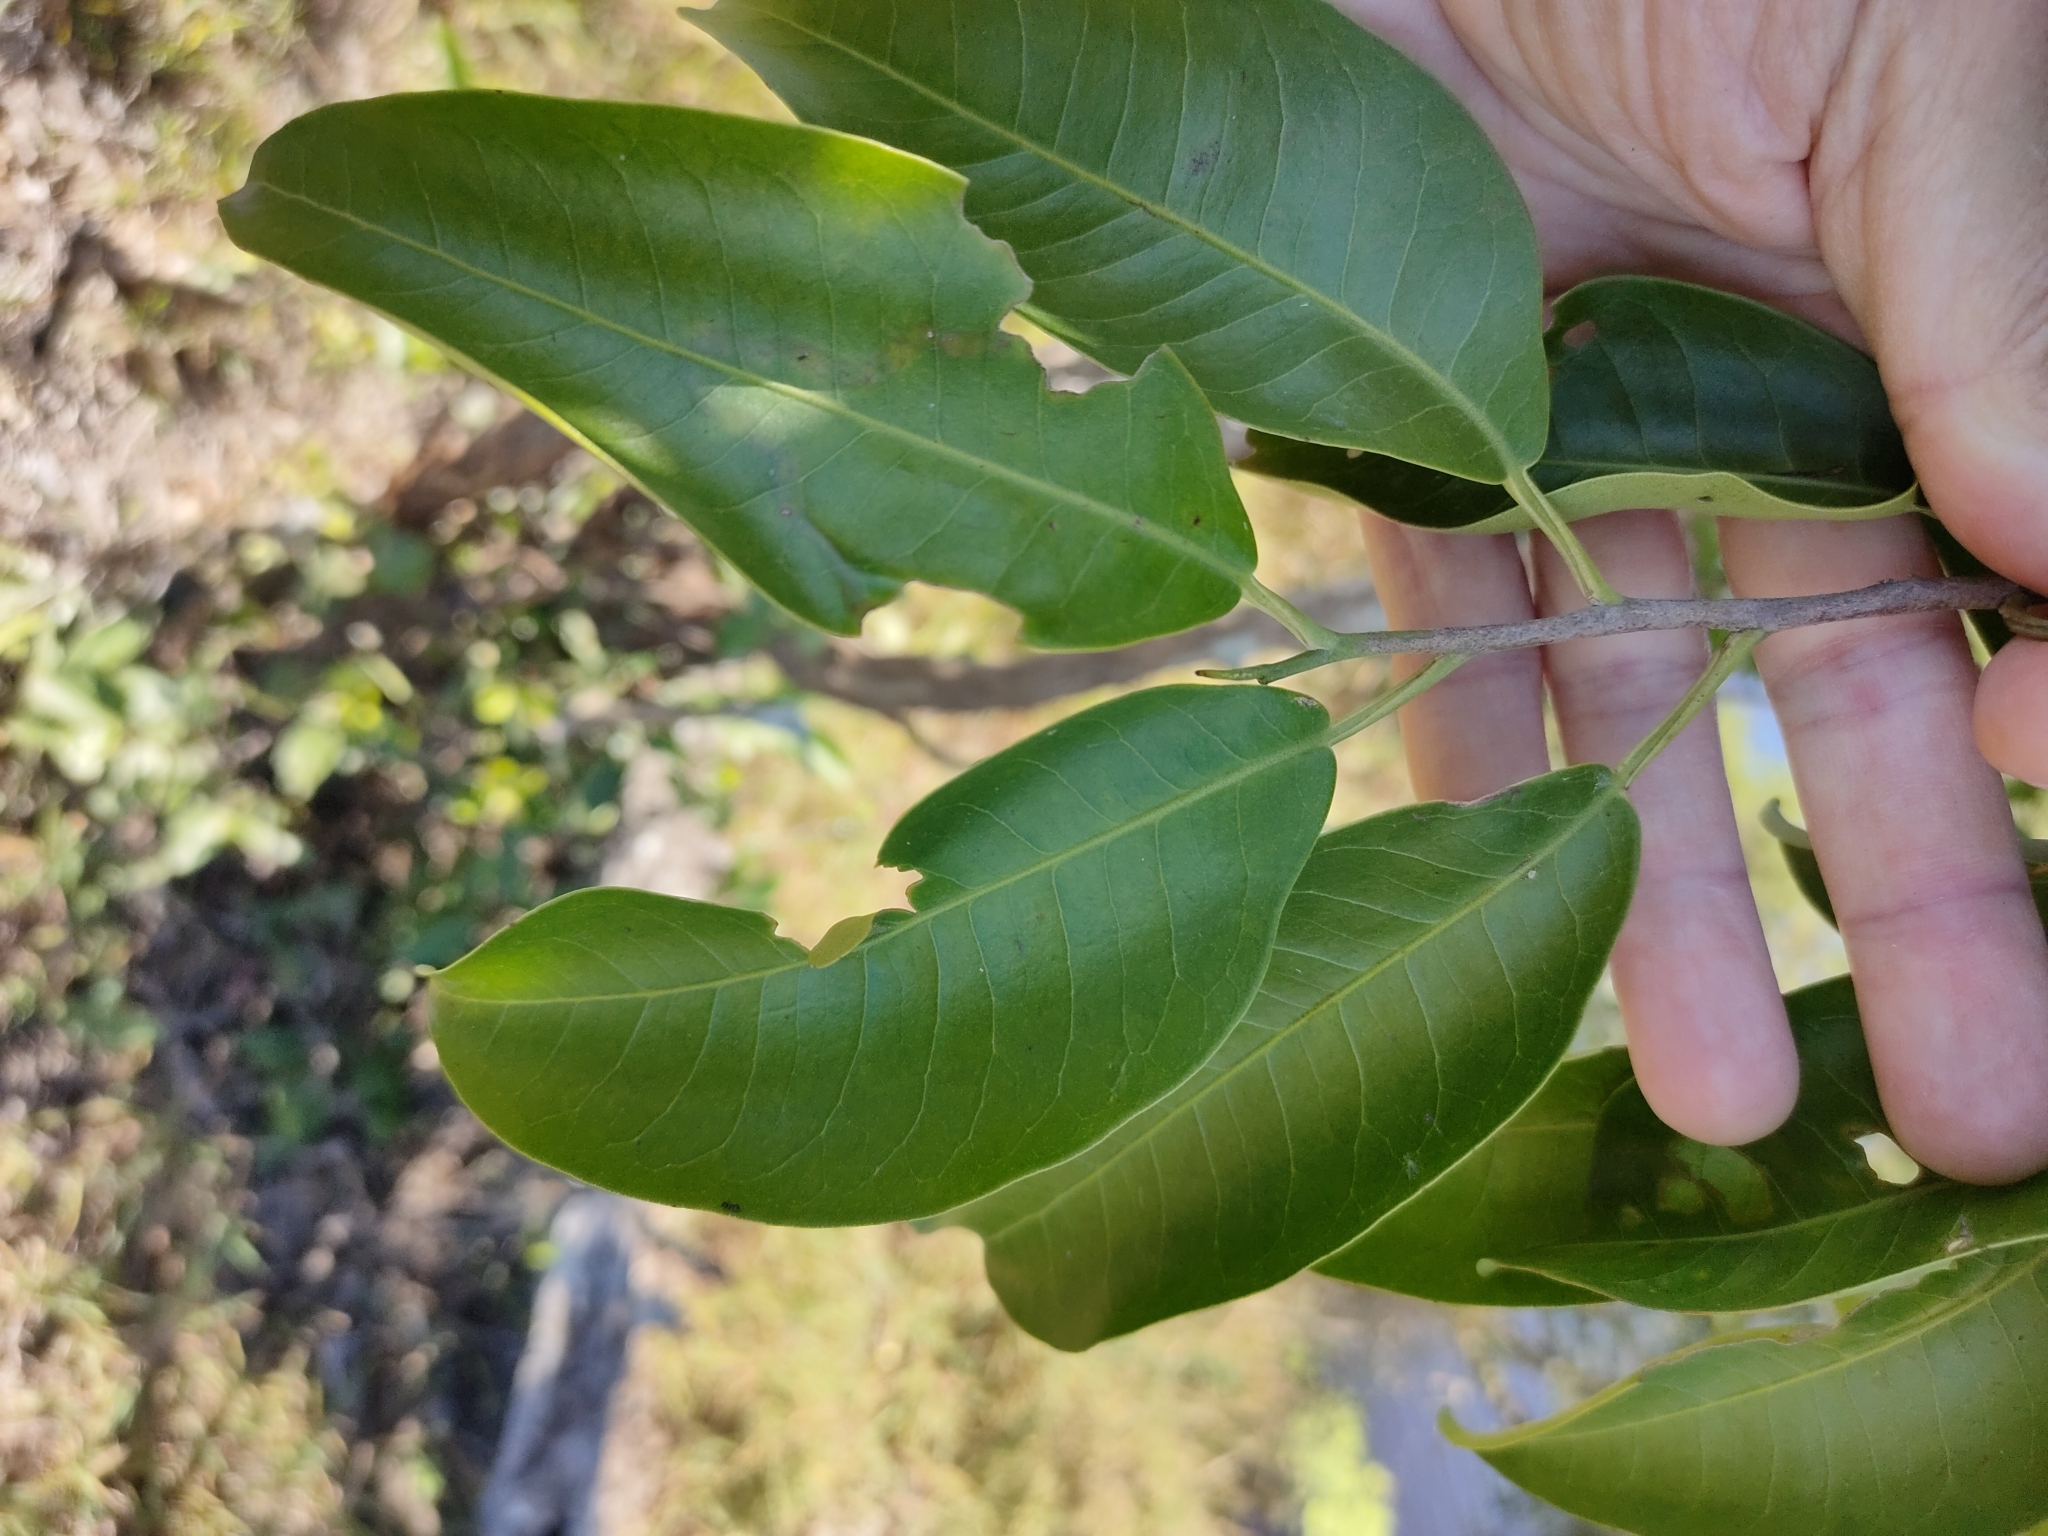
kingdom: Plantae
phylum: Tracheophyta
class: Magnoliopsida
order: Sapindales
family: Rutaceae
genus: Geijera
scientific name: Geijera salicifolia
